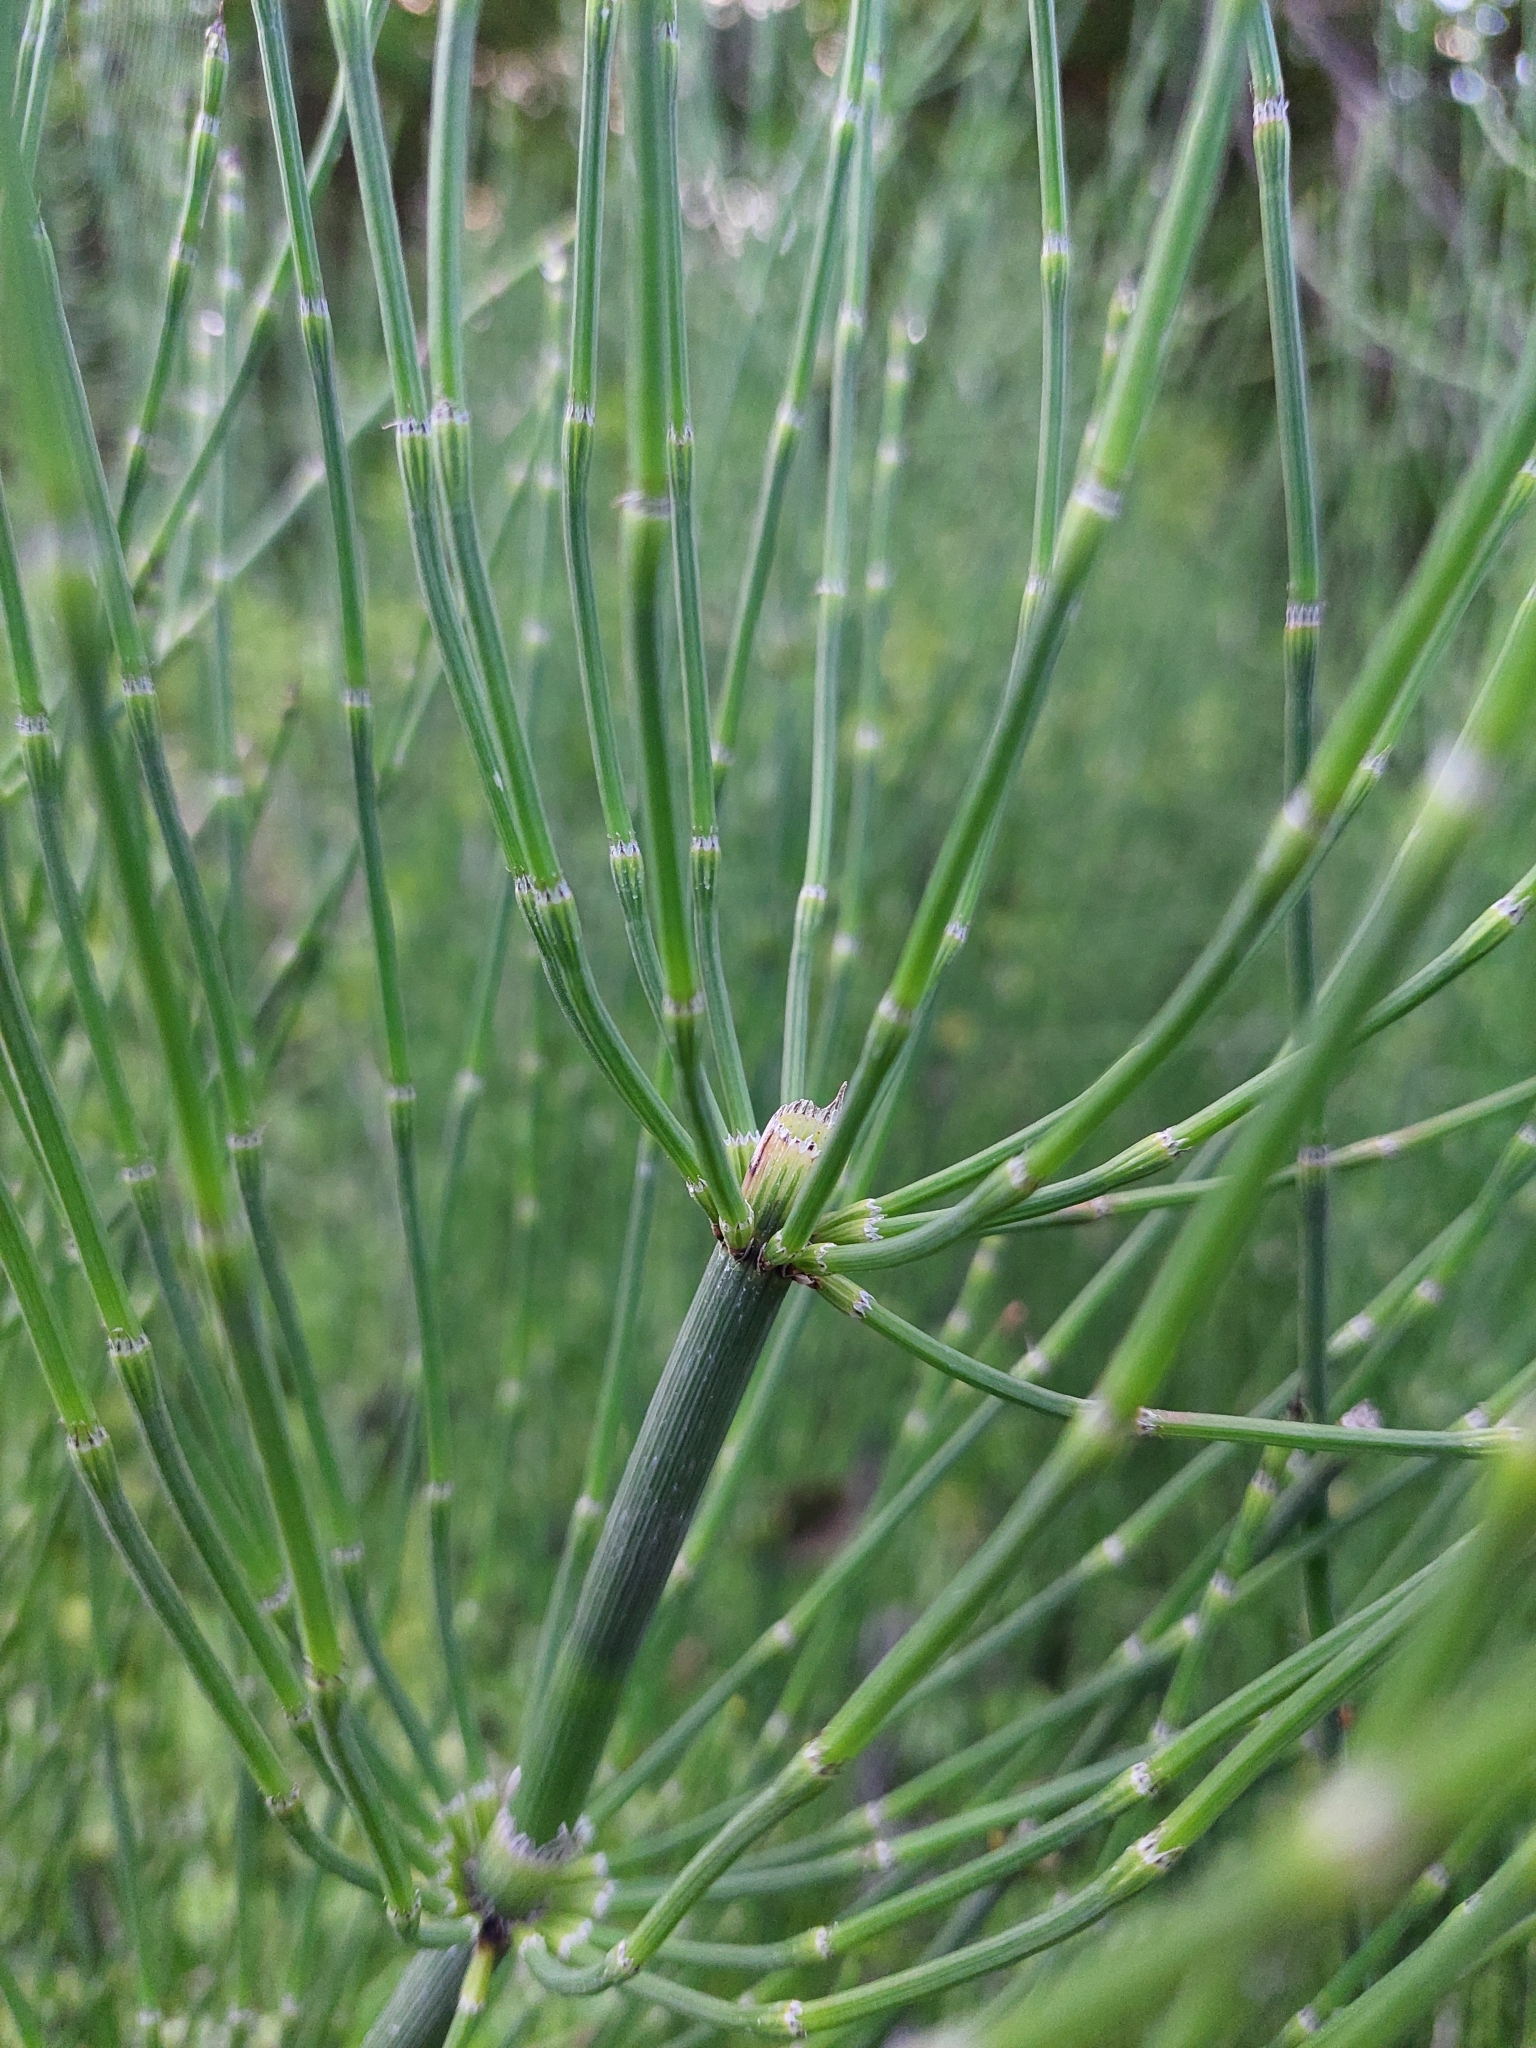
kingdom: Plantae
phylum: Tracheophyta
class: Polypodiopsida
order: Equisetales
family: Equisetaceae
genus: Equisetum
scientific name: Equisetum giganteum
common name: Giant horsetail
